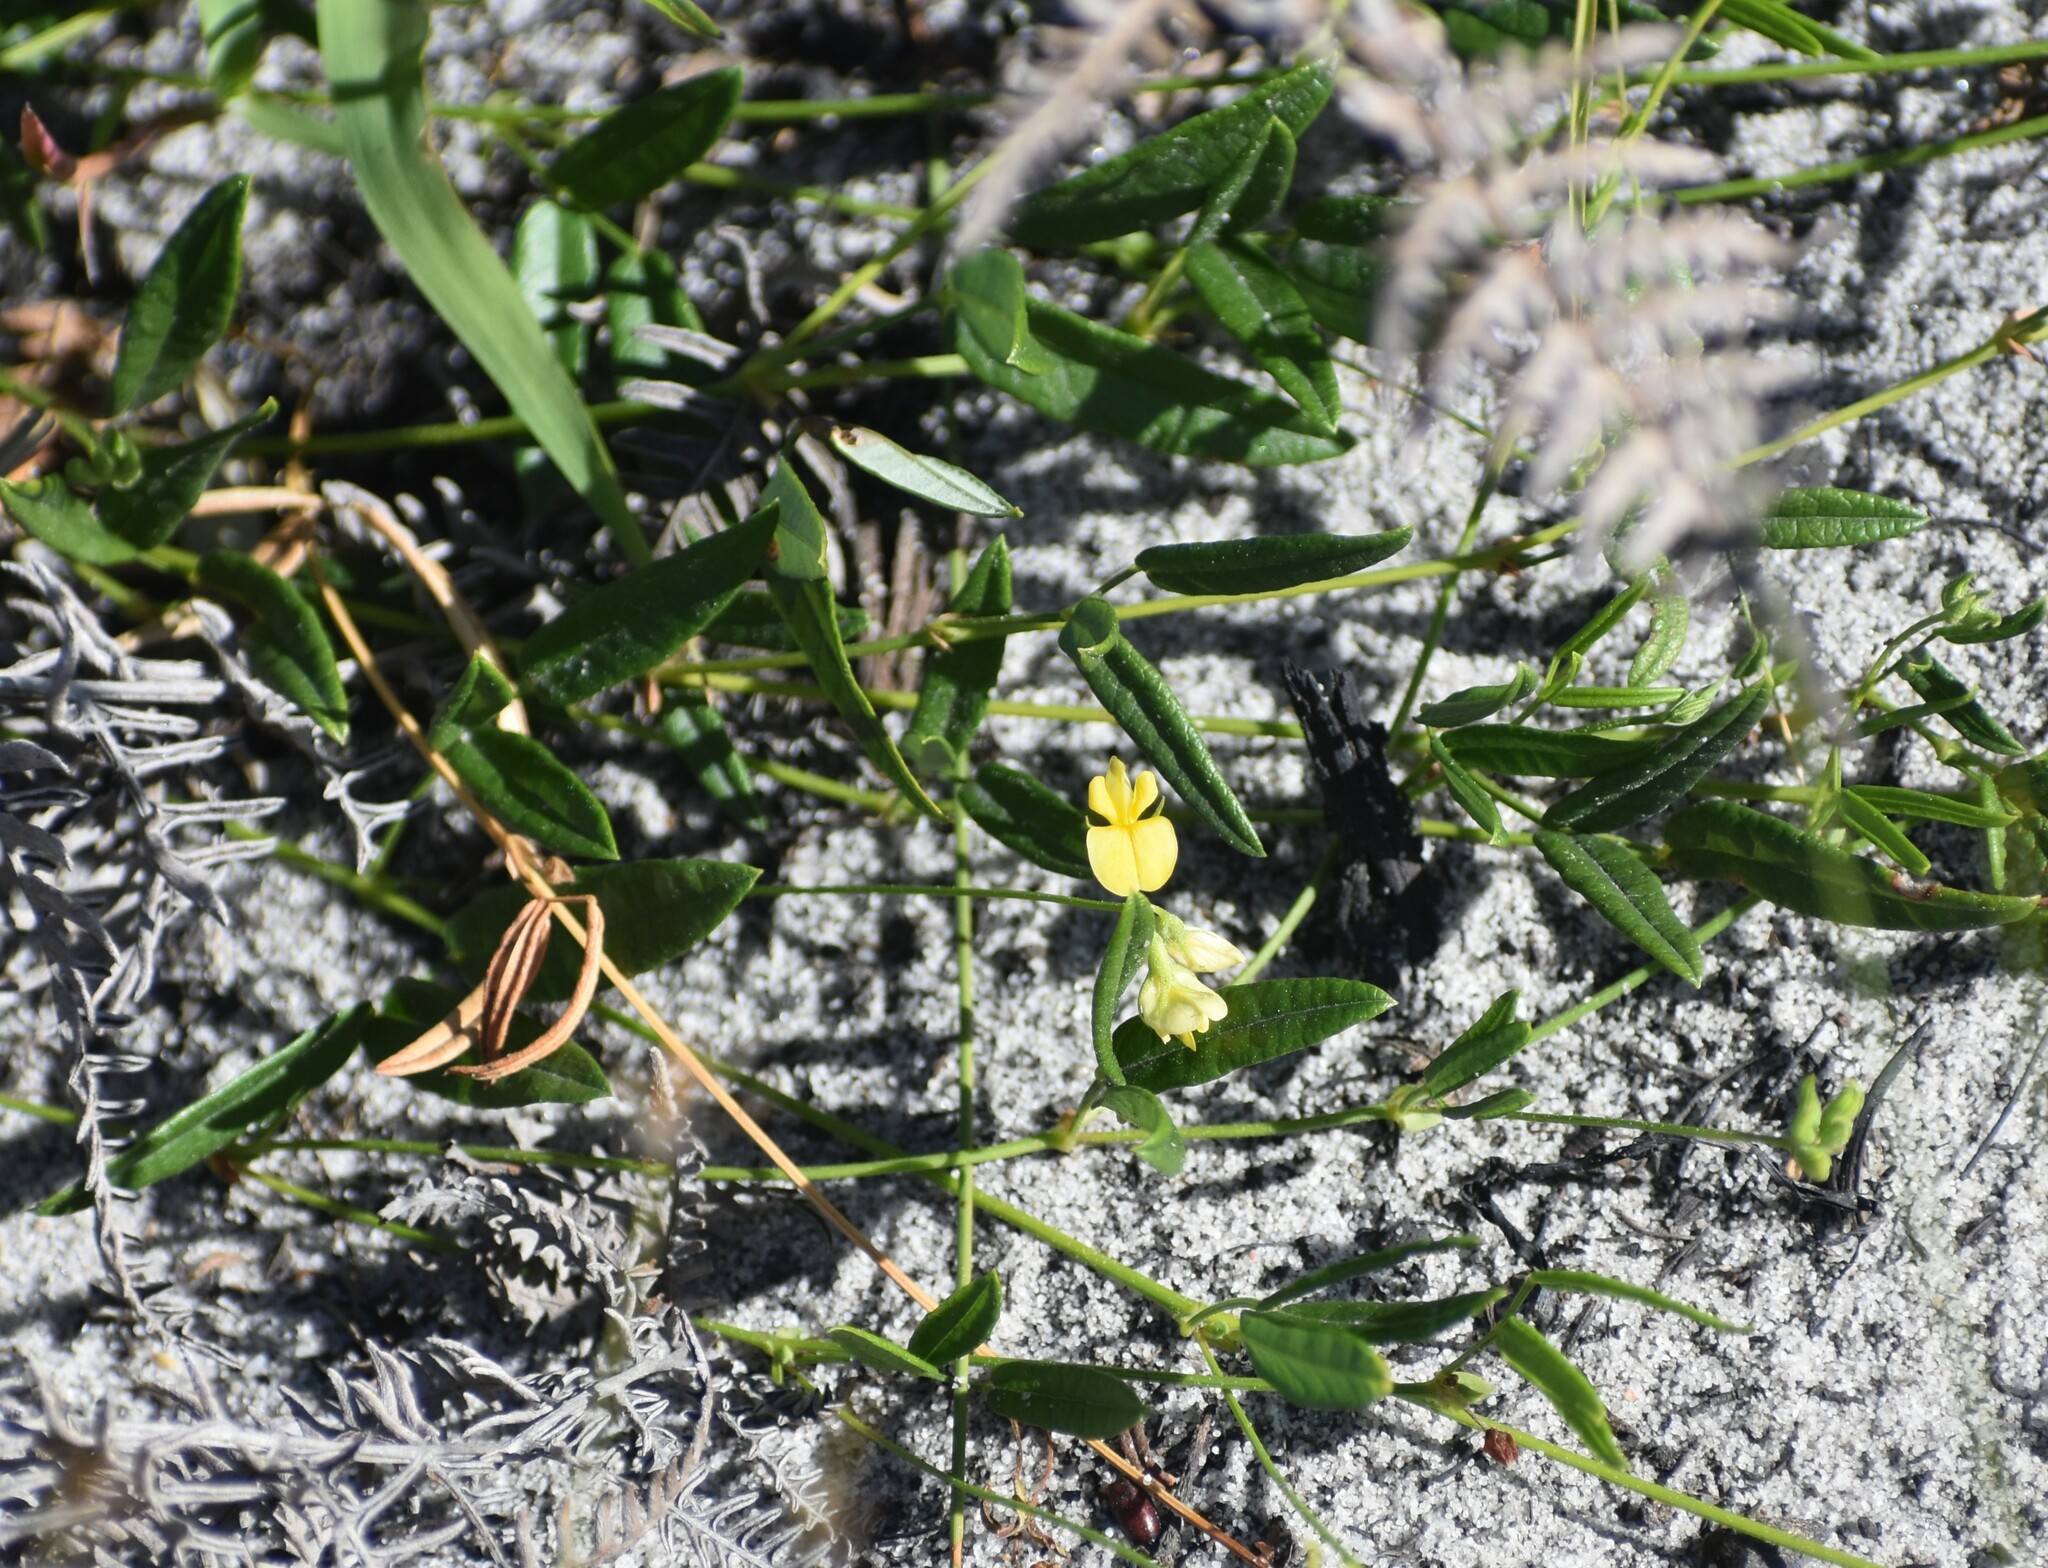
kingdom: Plantae
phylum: Tracheophyta
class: Magnoliopsida
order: Fabales
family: Fabaceae
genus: Rhynchosia
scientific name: Rhynchosia leucoscias
